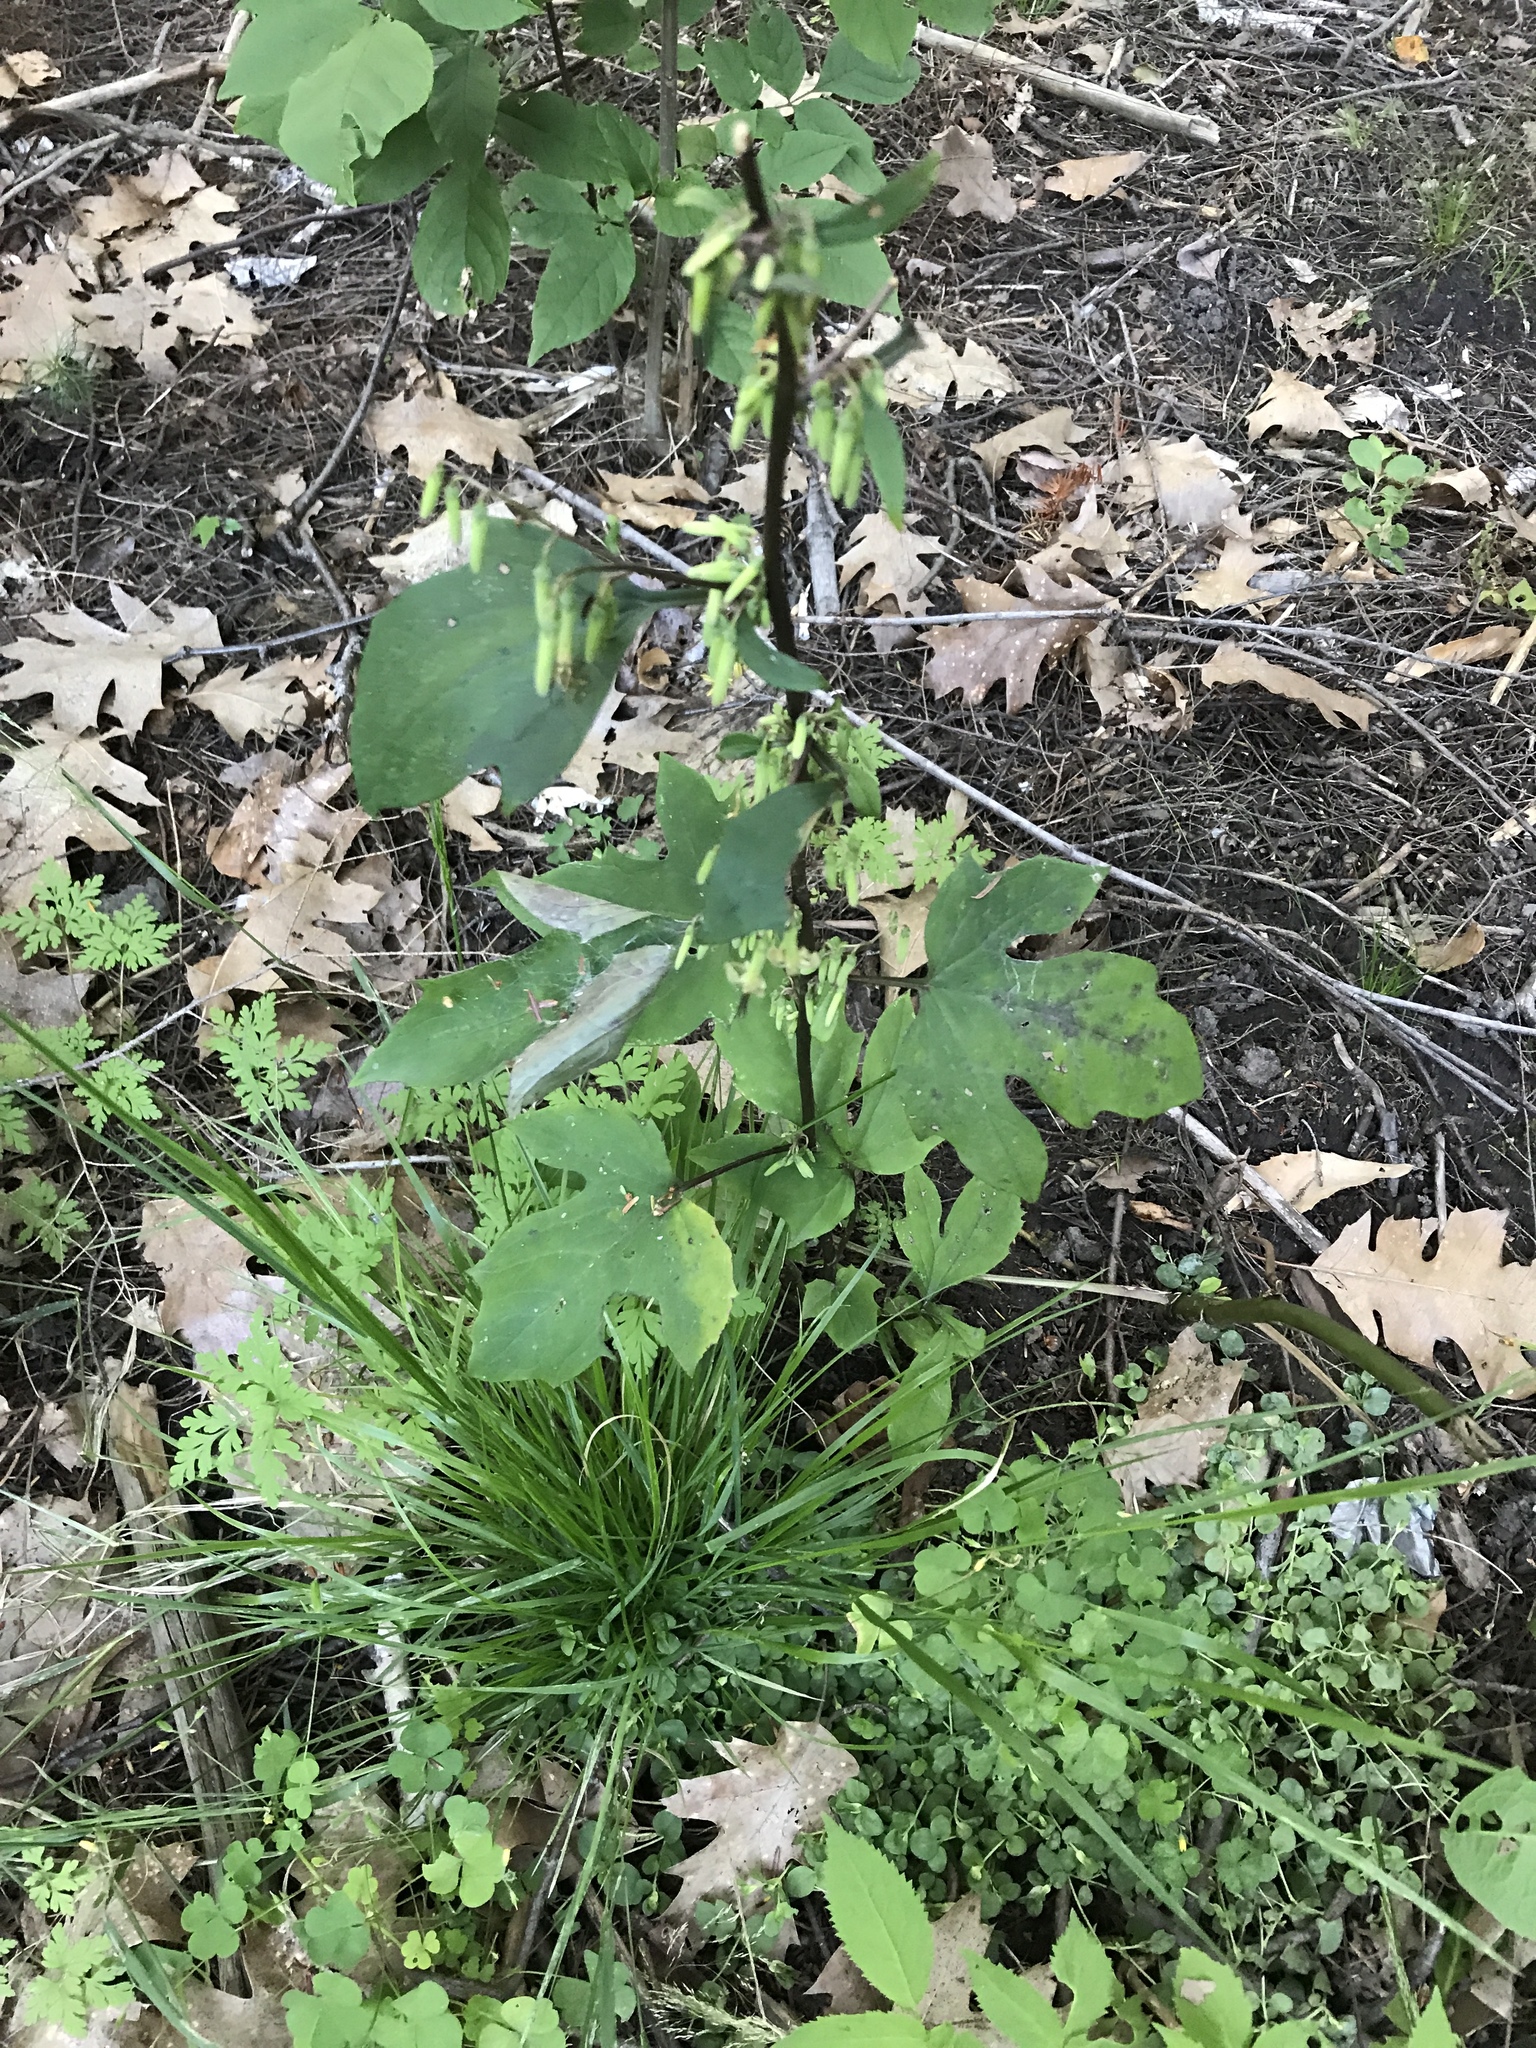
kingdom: Plantae
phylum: Tracheophyta
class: Magnoliopsida
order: Asterales
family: Asteraceae
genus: Nabalus
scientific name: Nabalus altissima
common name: Tall rattlesnakeroot
